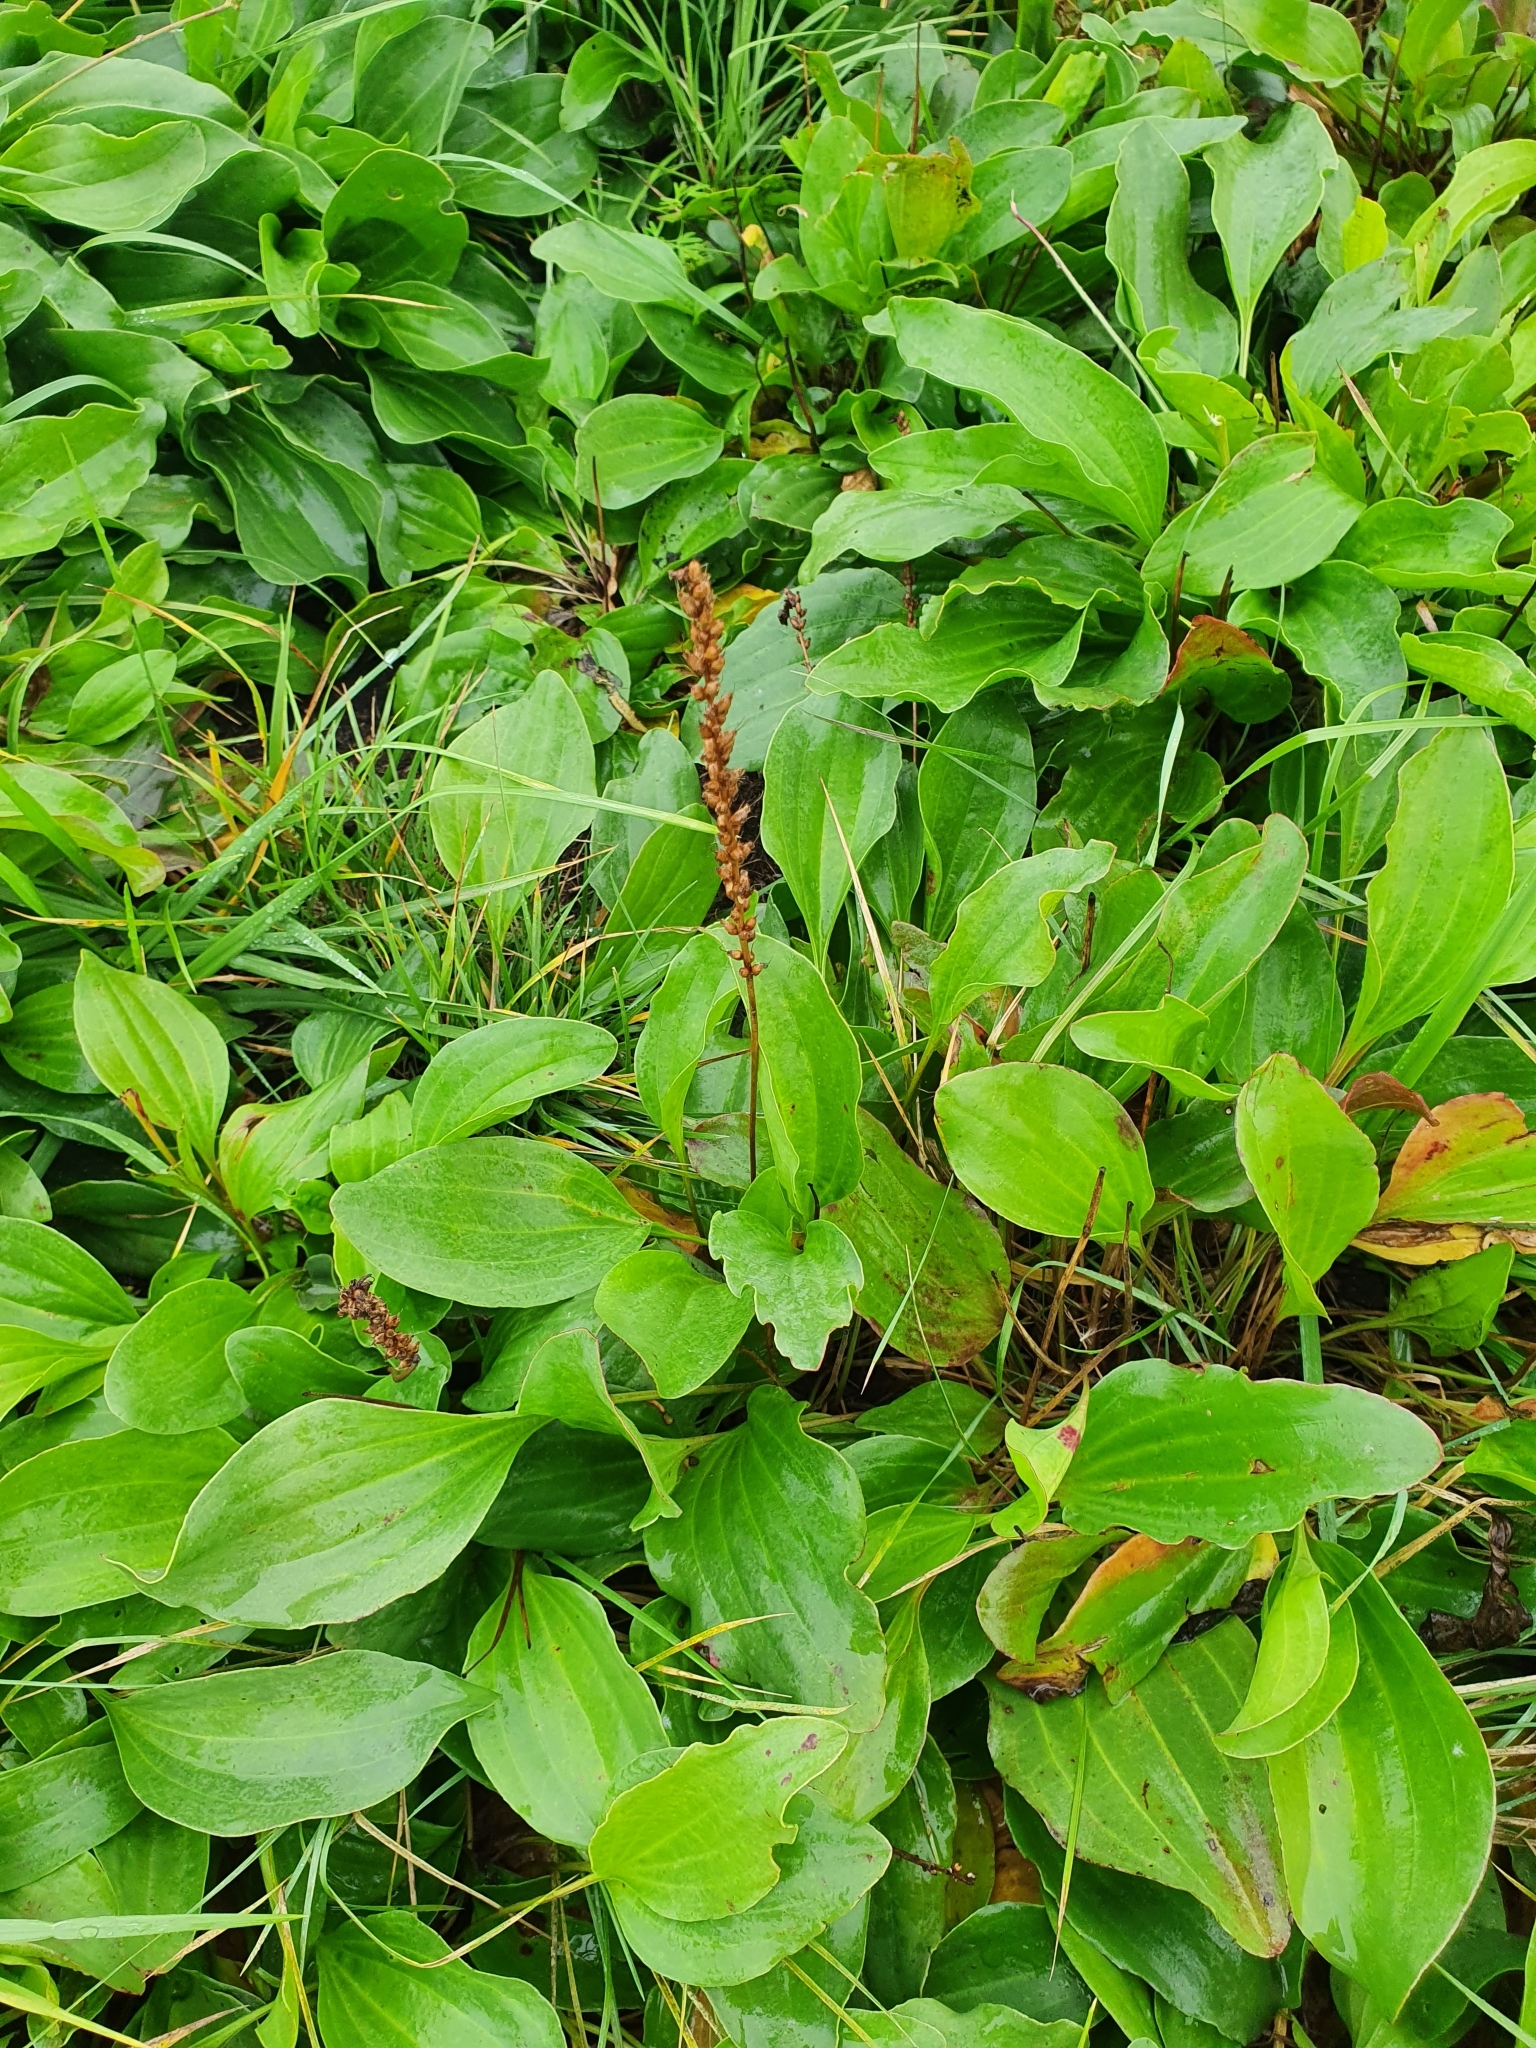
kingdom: Plantae
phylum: Tracheophyta
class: Magnoliopsida
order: Lamiales
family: Plantaginaceae
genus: Plantago
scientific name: Plantago cornuti
